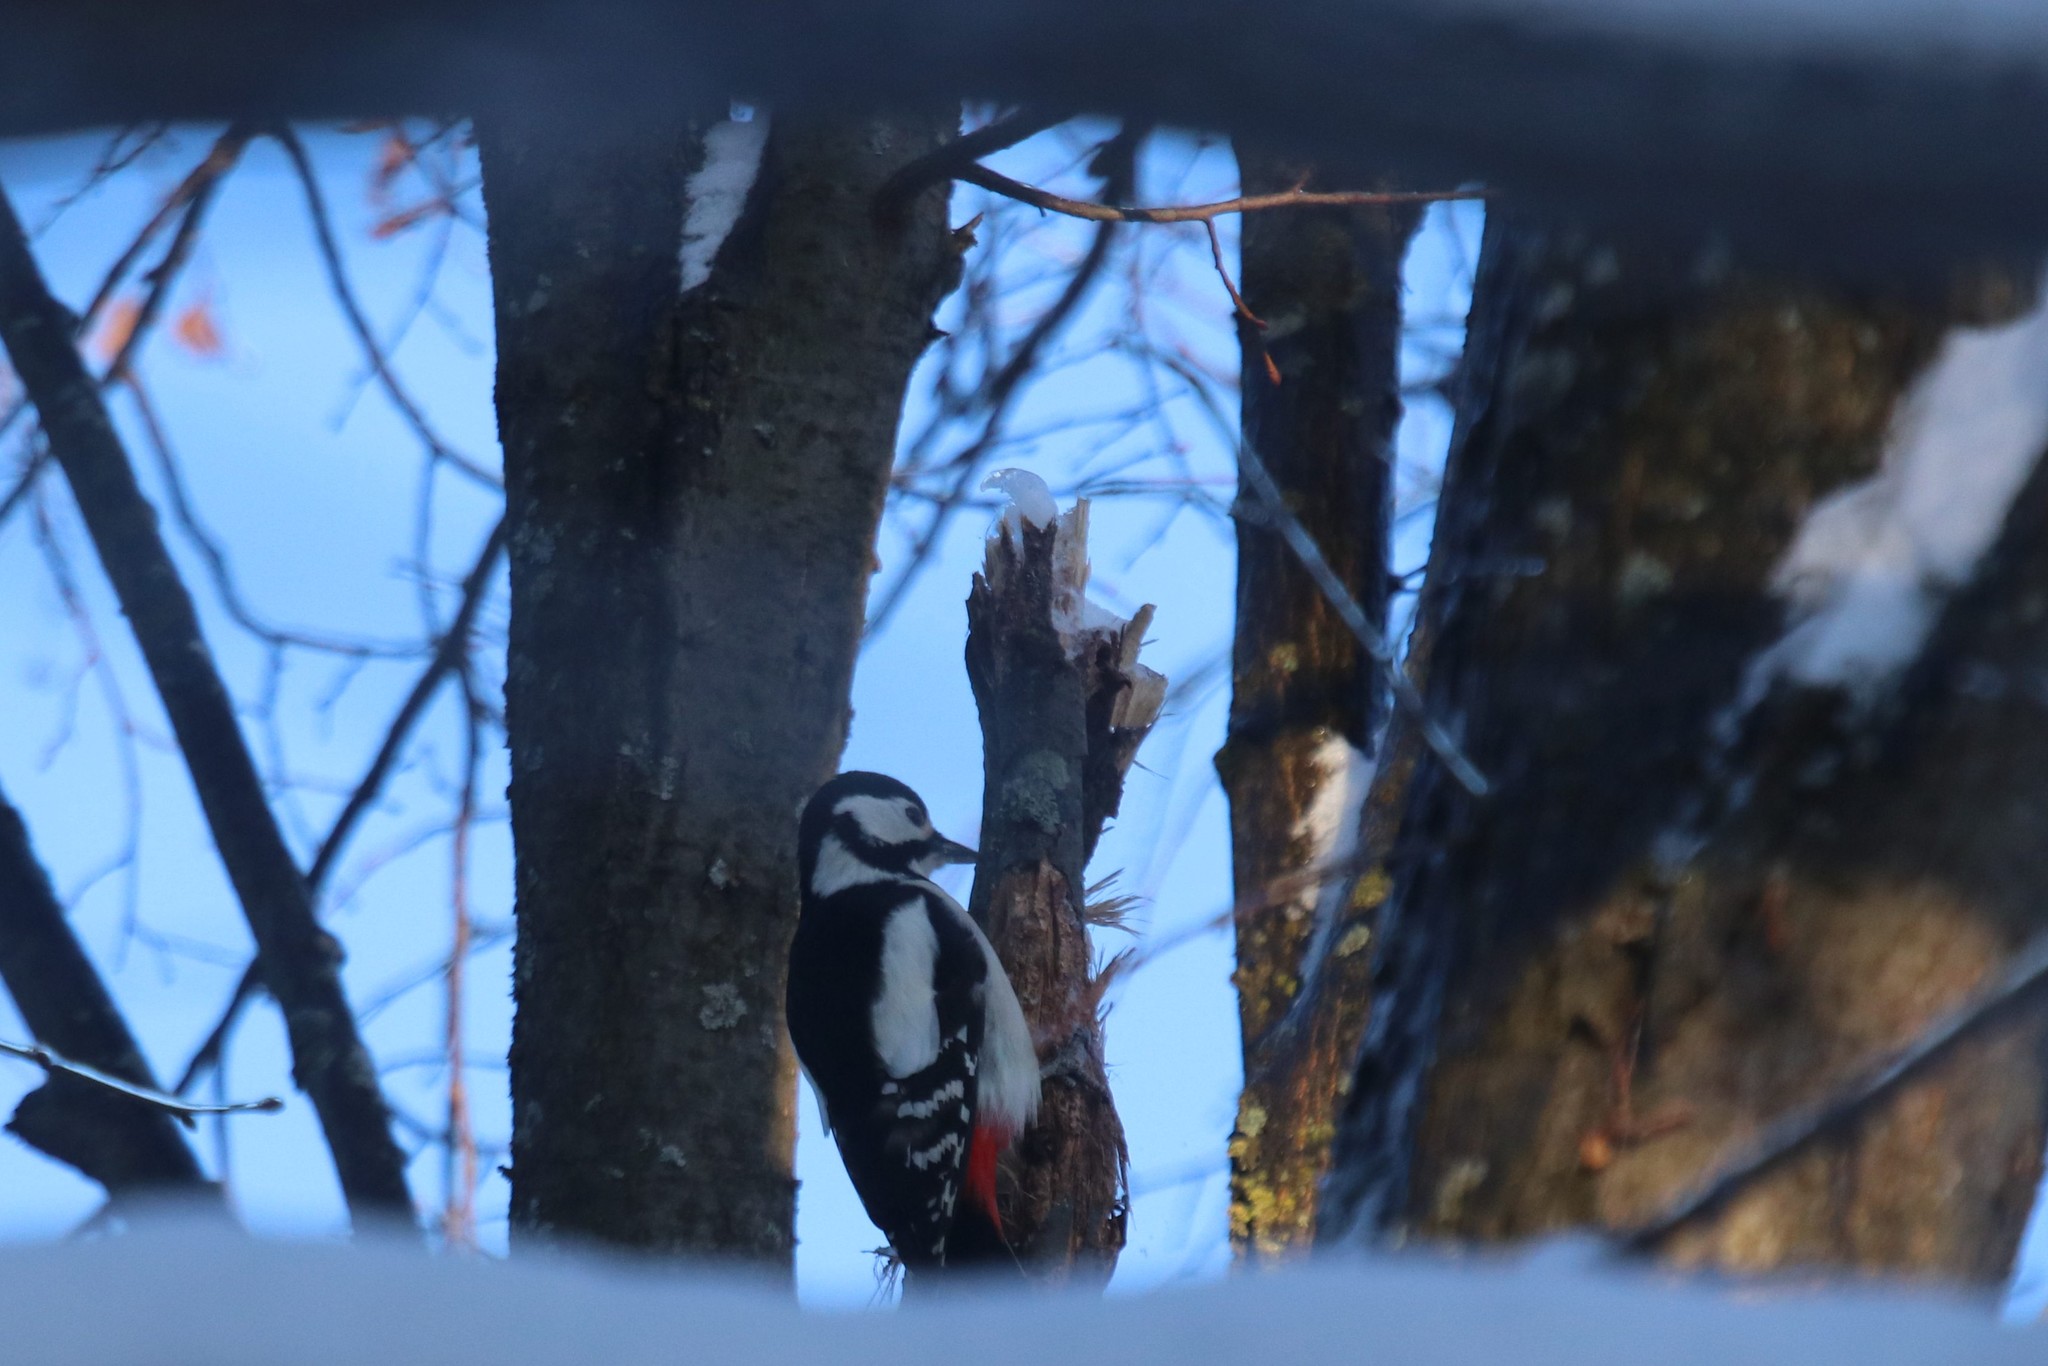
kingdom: Animalia
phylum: Chordata
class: Aves
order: Piciformes
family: Picidae
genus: Dendrocopos
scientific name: Dendrocopos major
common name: Great spotted woodpecker
